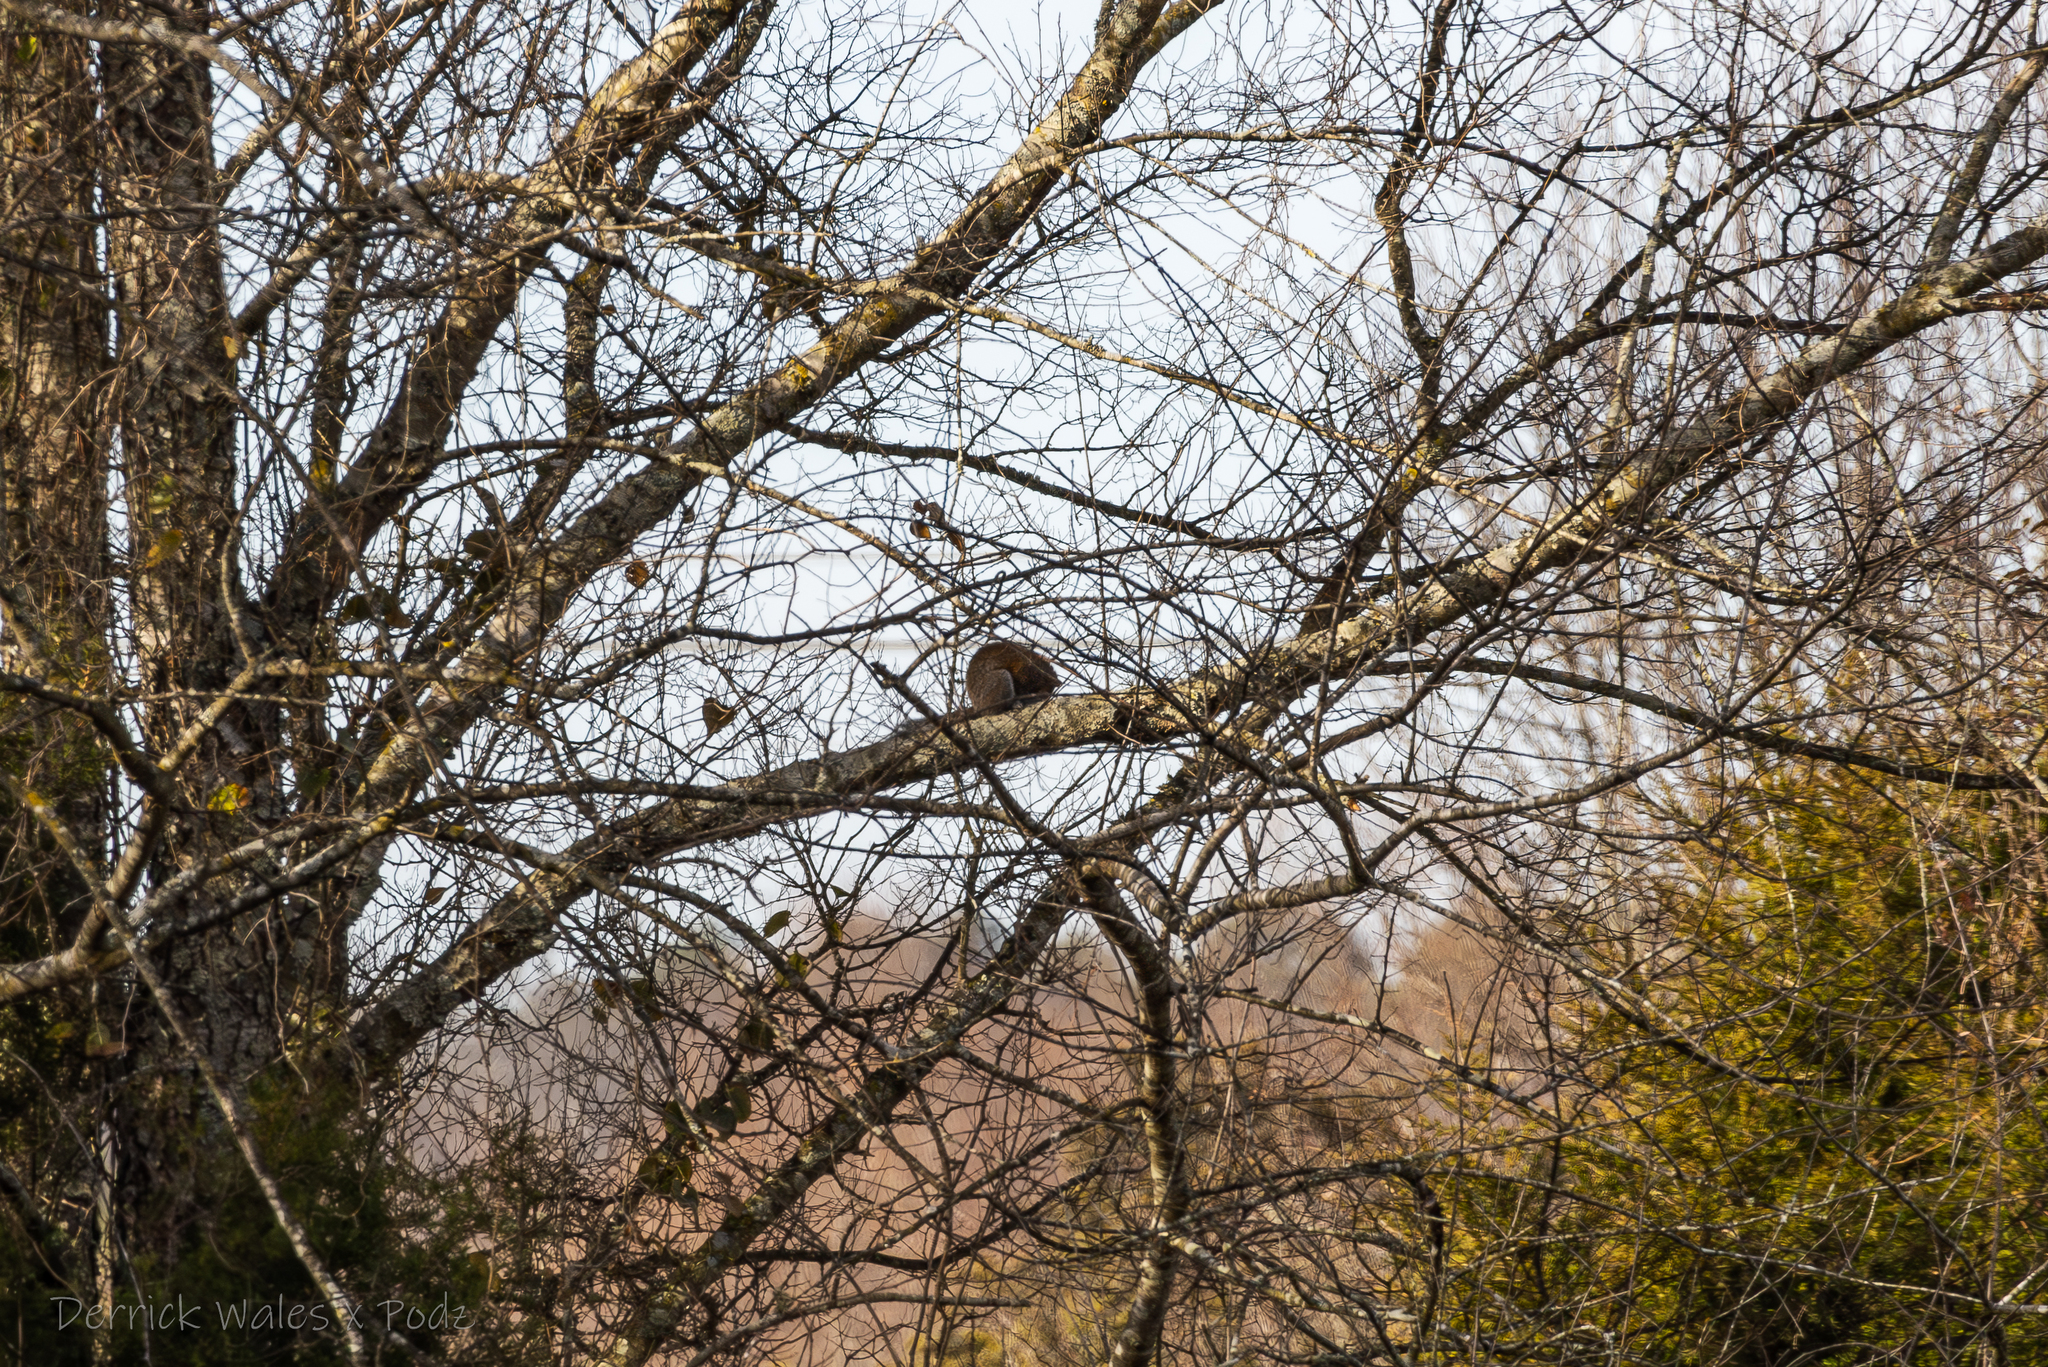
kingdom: Animalia
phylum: Chordata
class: Mammalia
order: Rodentia
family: Sciuridae
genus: Sciurus
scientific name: Sciurus carolinensis
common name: Eastern gray squirrel
